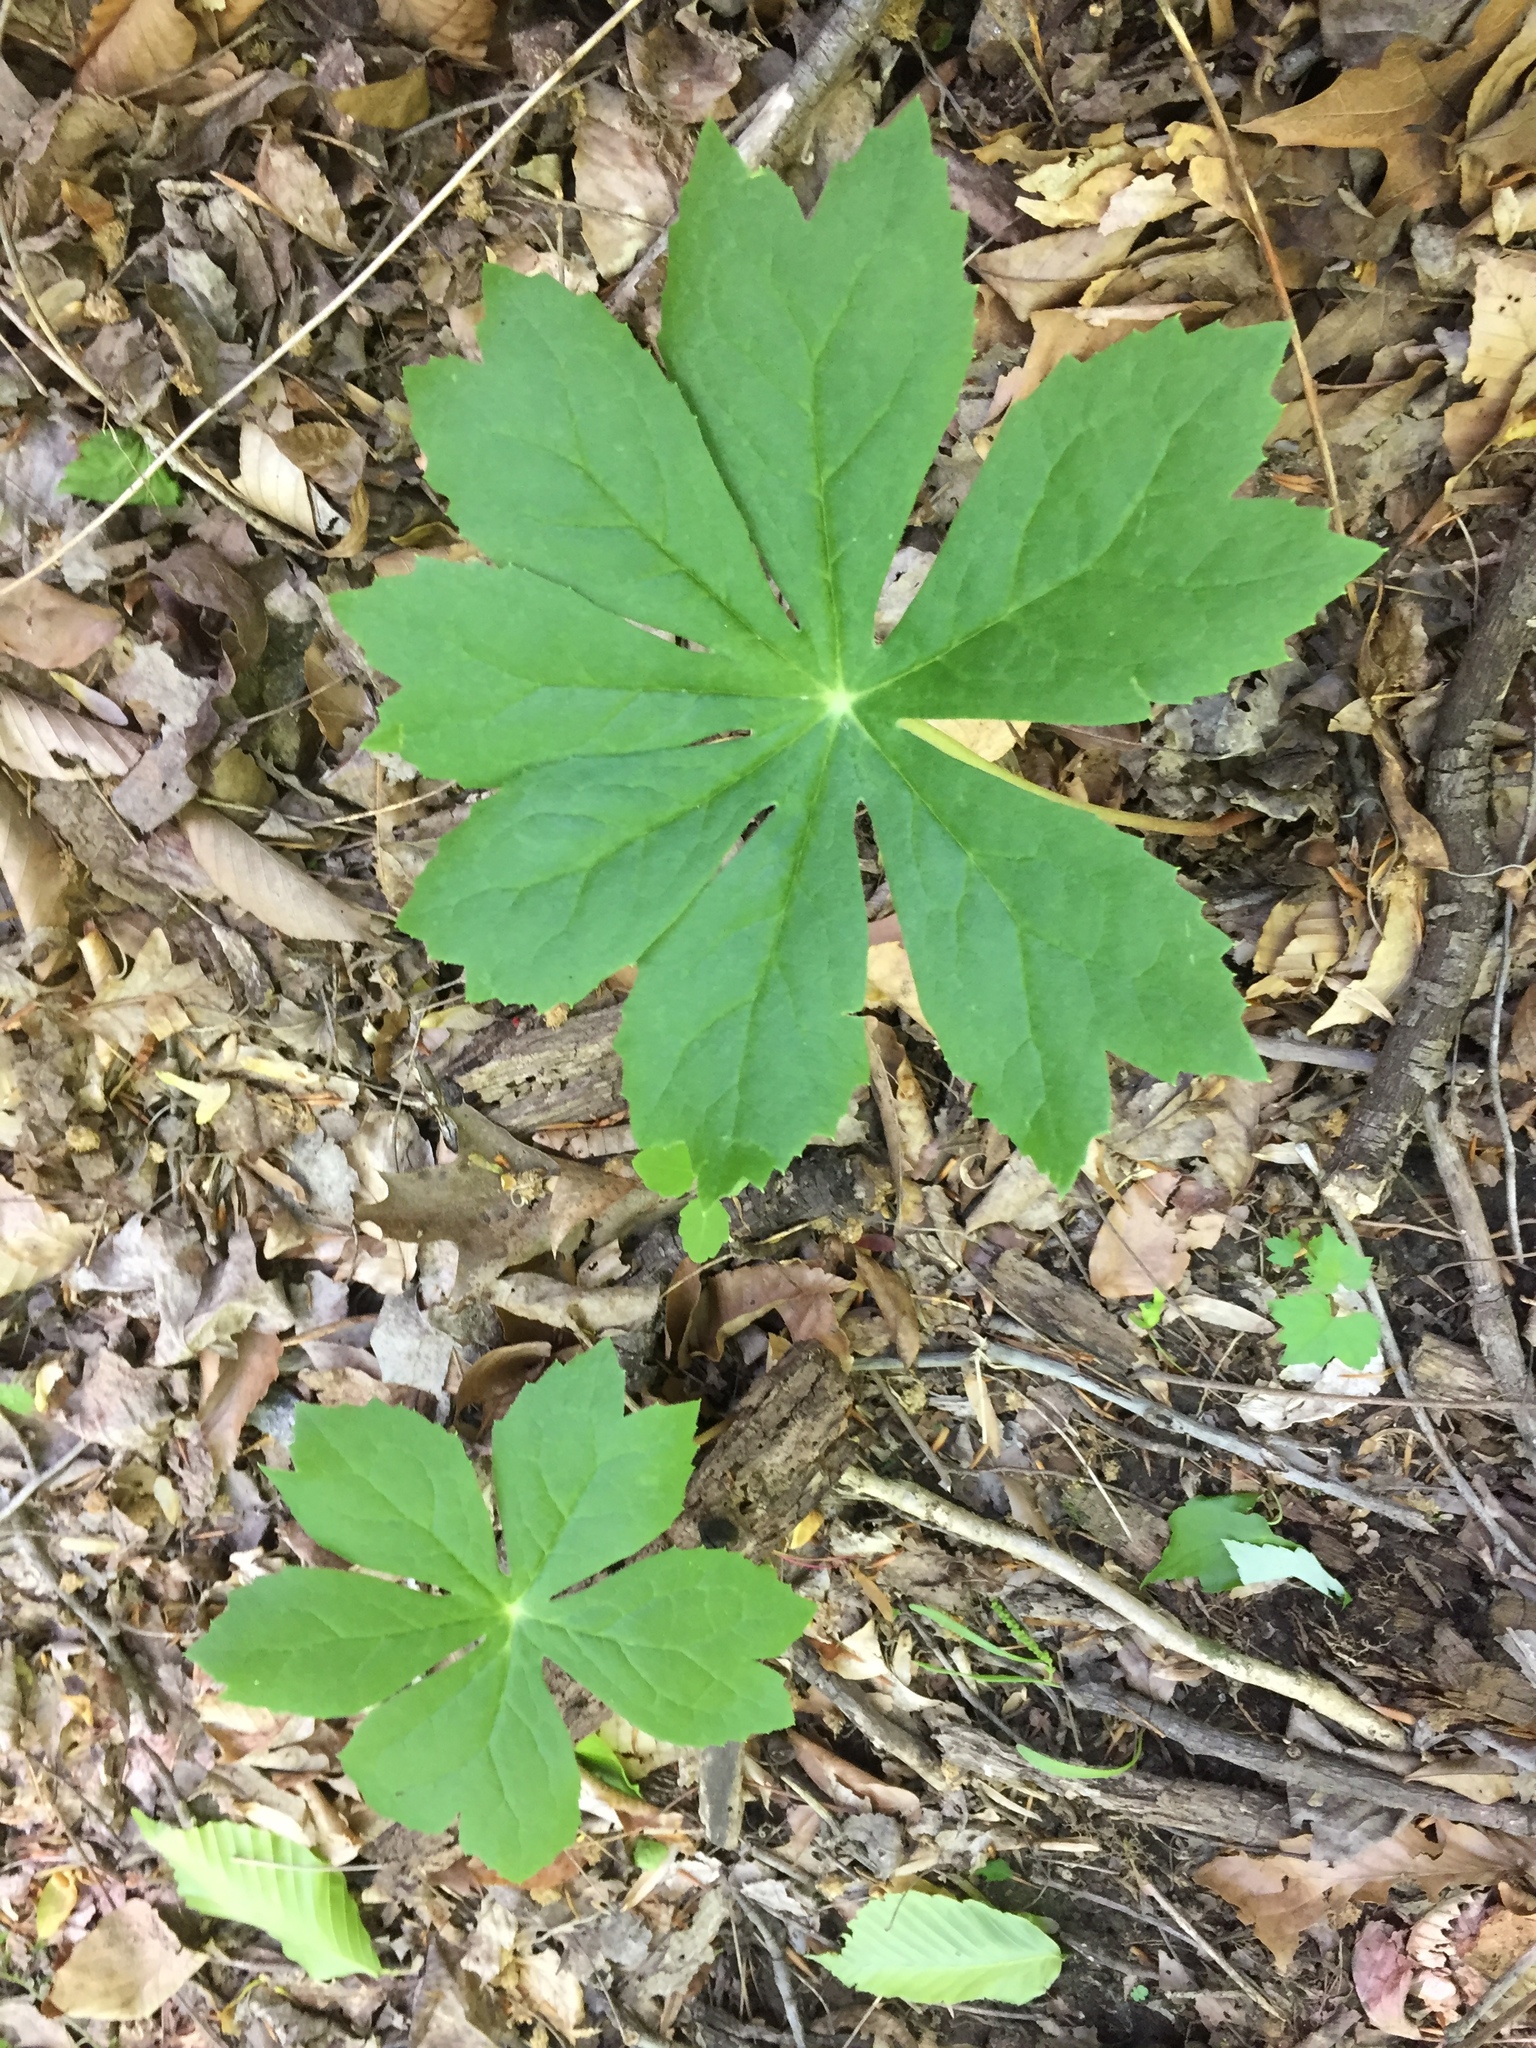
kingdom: Plantae
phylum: Tracheophyta
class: Magnoliopsida
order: Ranunculales
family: Berberidaceae
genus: Podophyllum
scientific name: Podophyllum peltatum
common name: Wild mandrake
